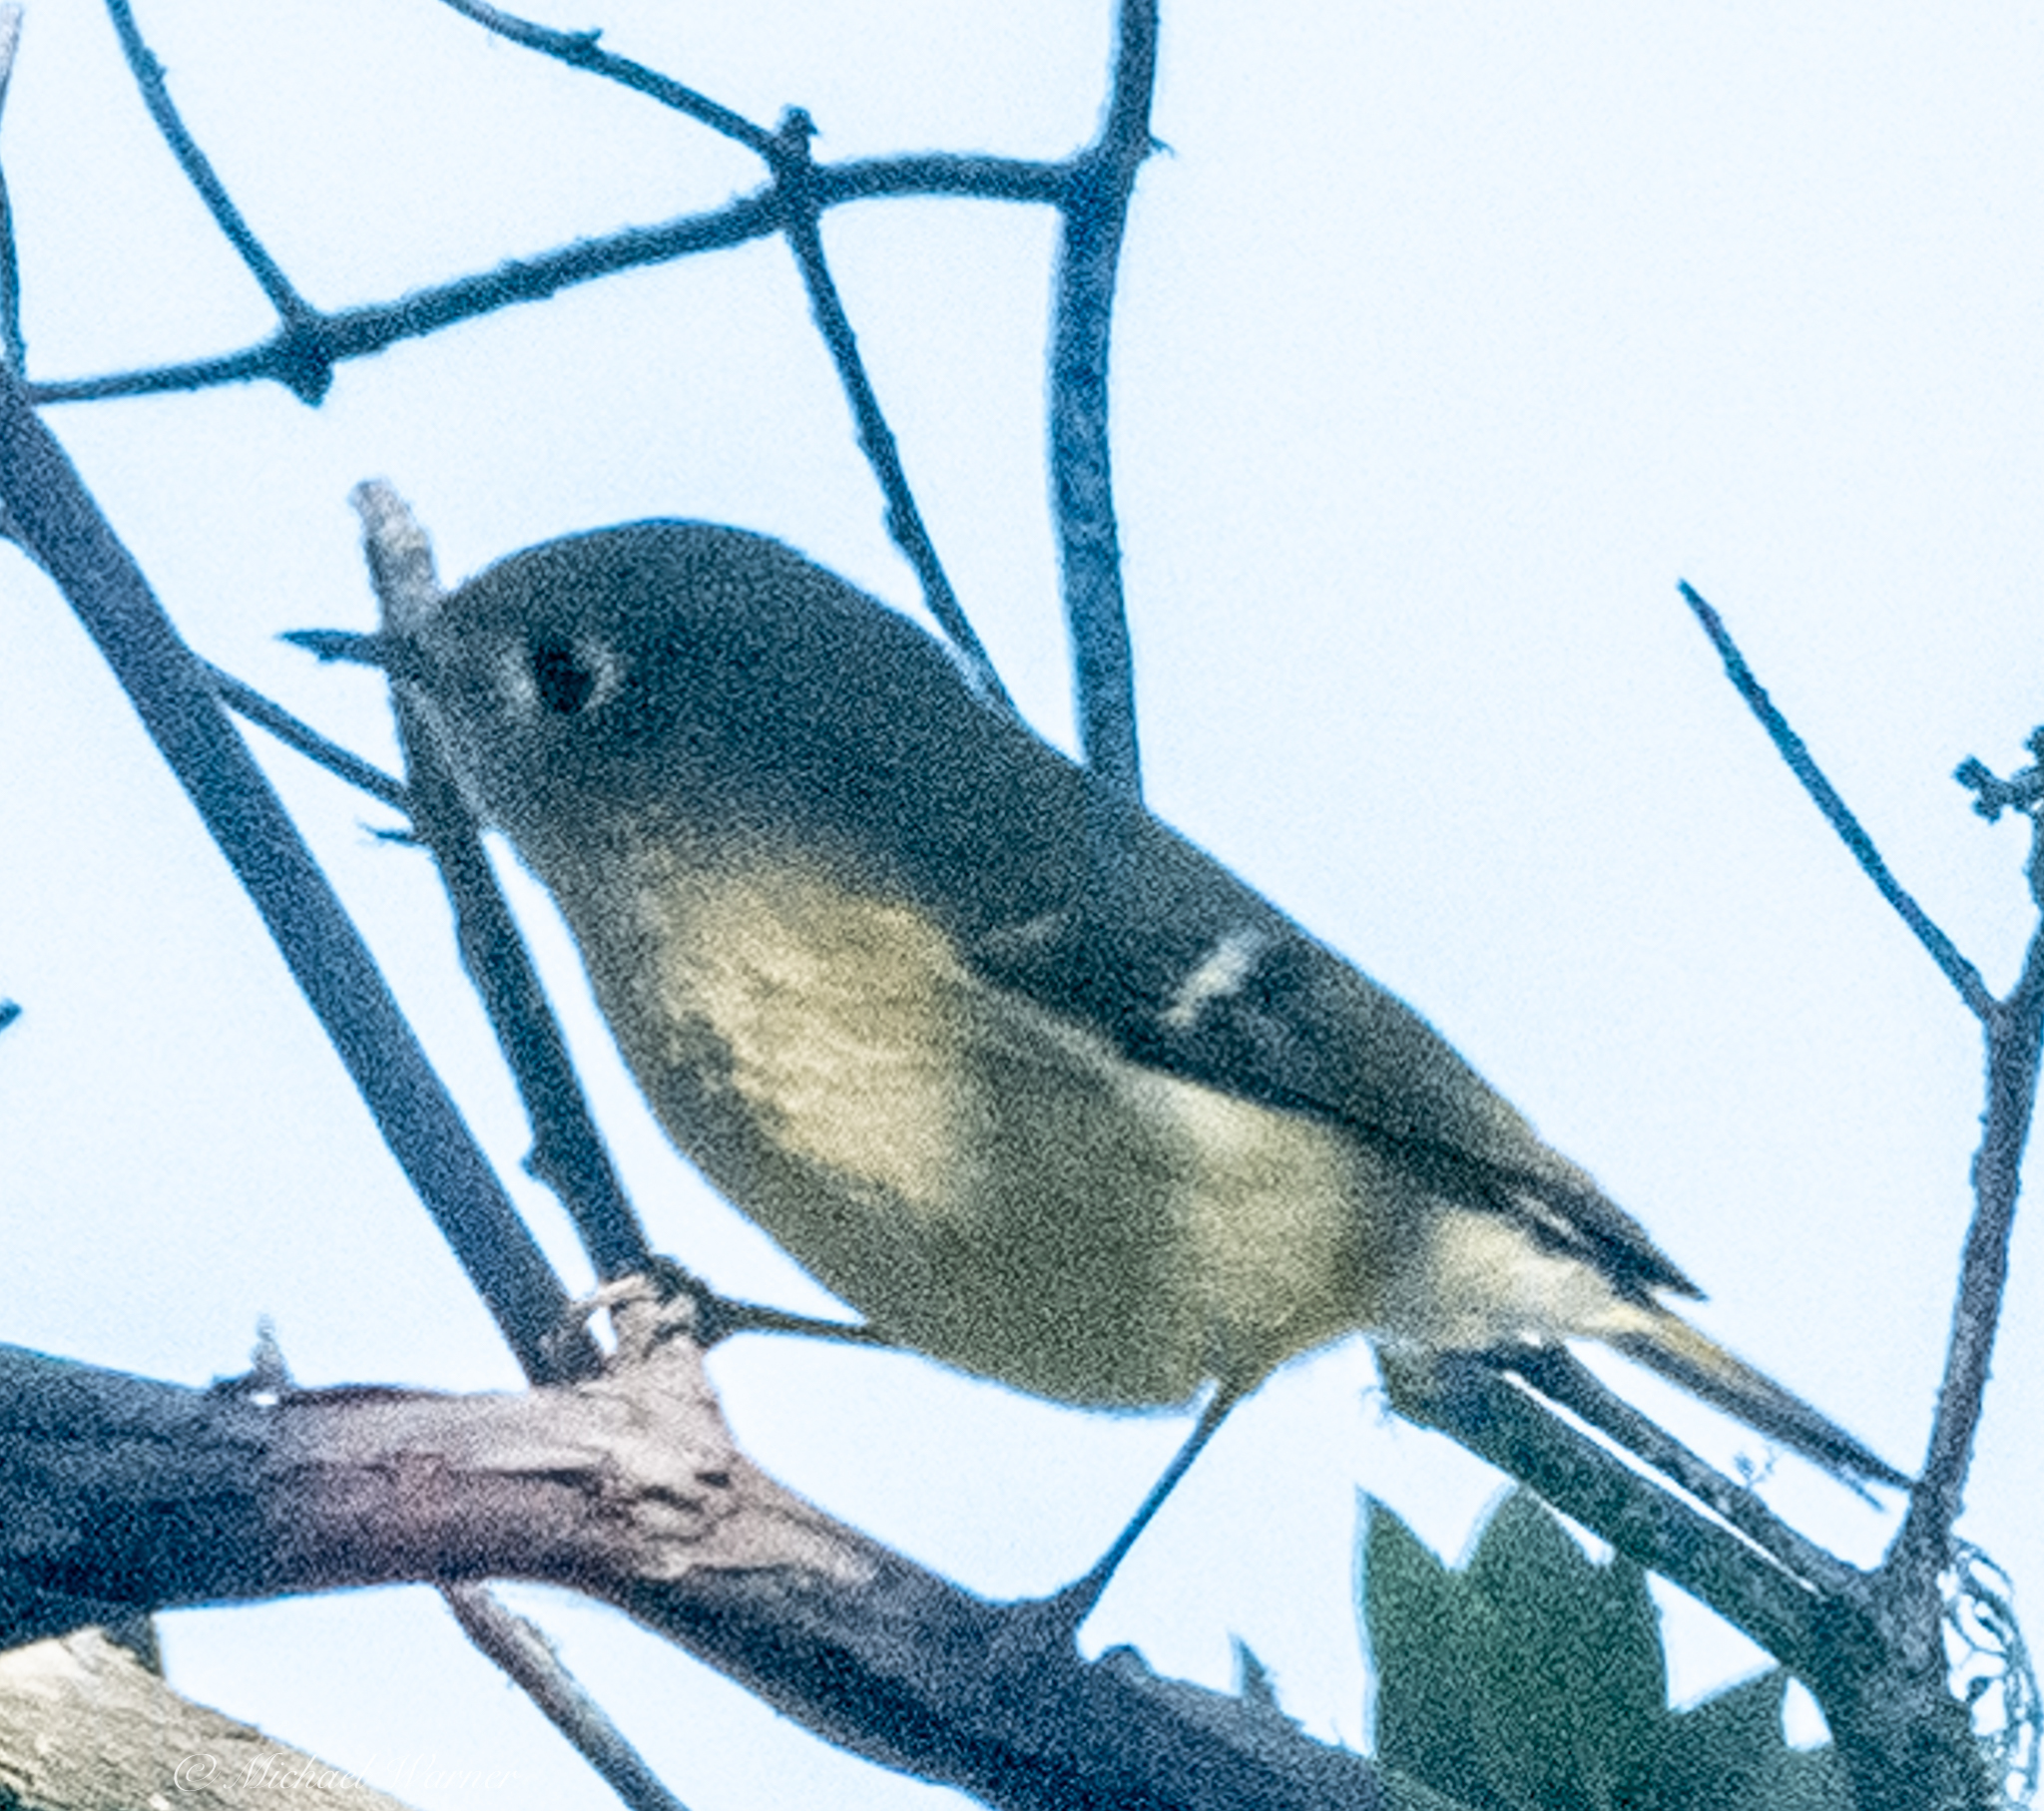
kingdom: Animalia
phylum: Chordata
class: Aves
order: Passeriformes
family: Regulidae
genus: Regulus
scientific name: Regulus calendula
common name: Ruby-crowned kinglet
